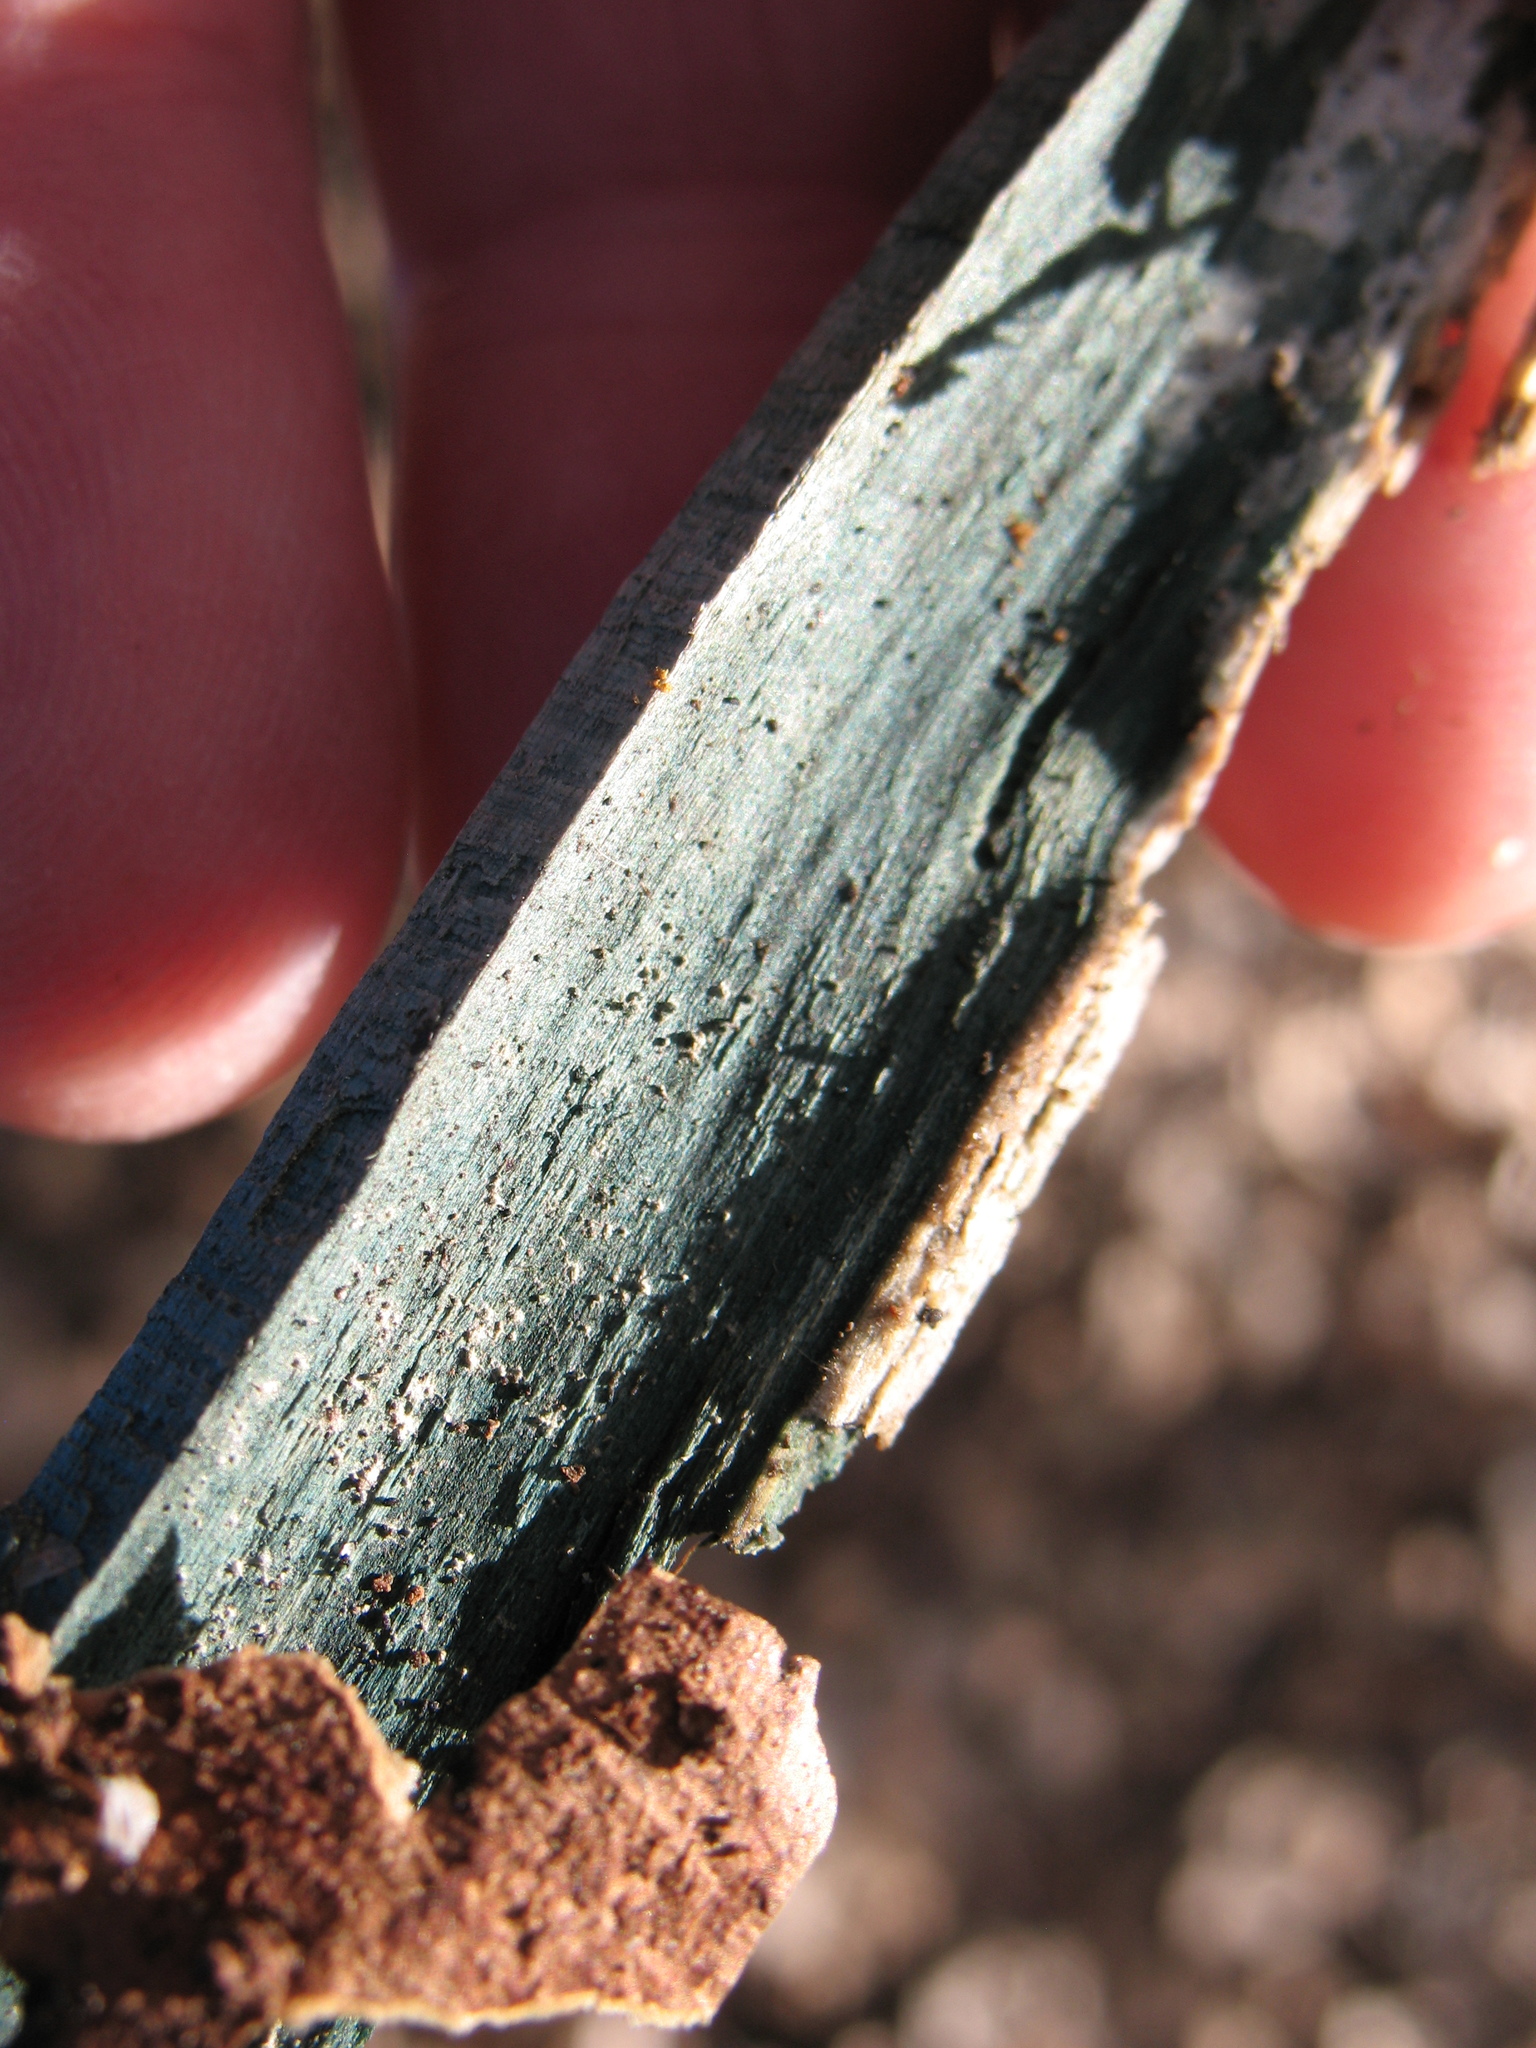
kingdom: Fungi
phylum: Ascomycota
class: Leotiomycetes
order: Helotiales
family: Chlorociboriaceae
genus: Chlorociboria
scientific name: Chlorociboria
